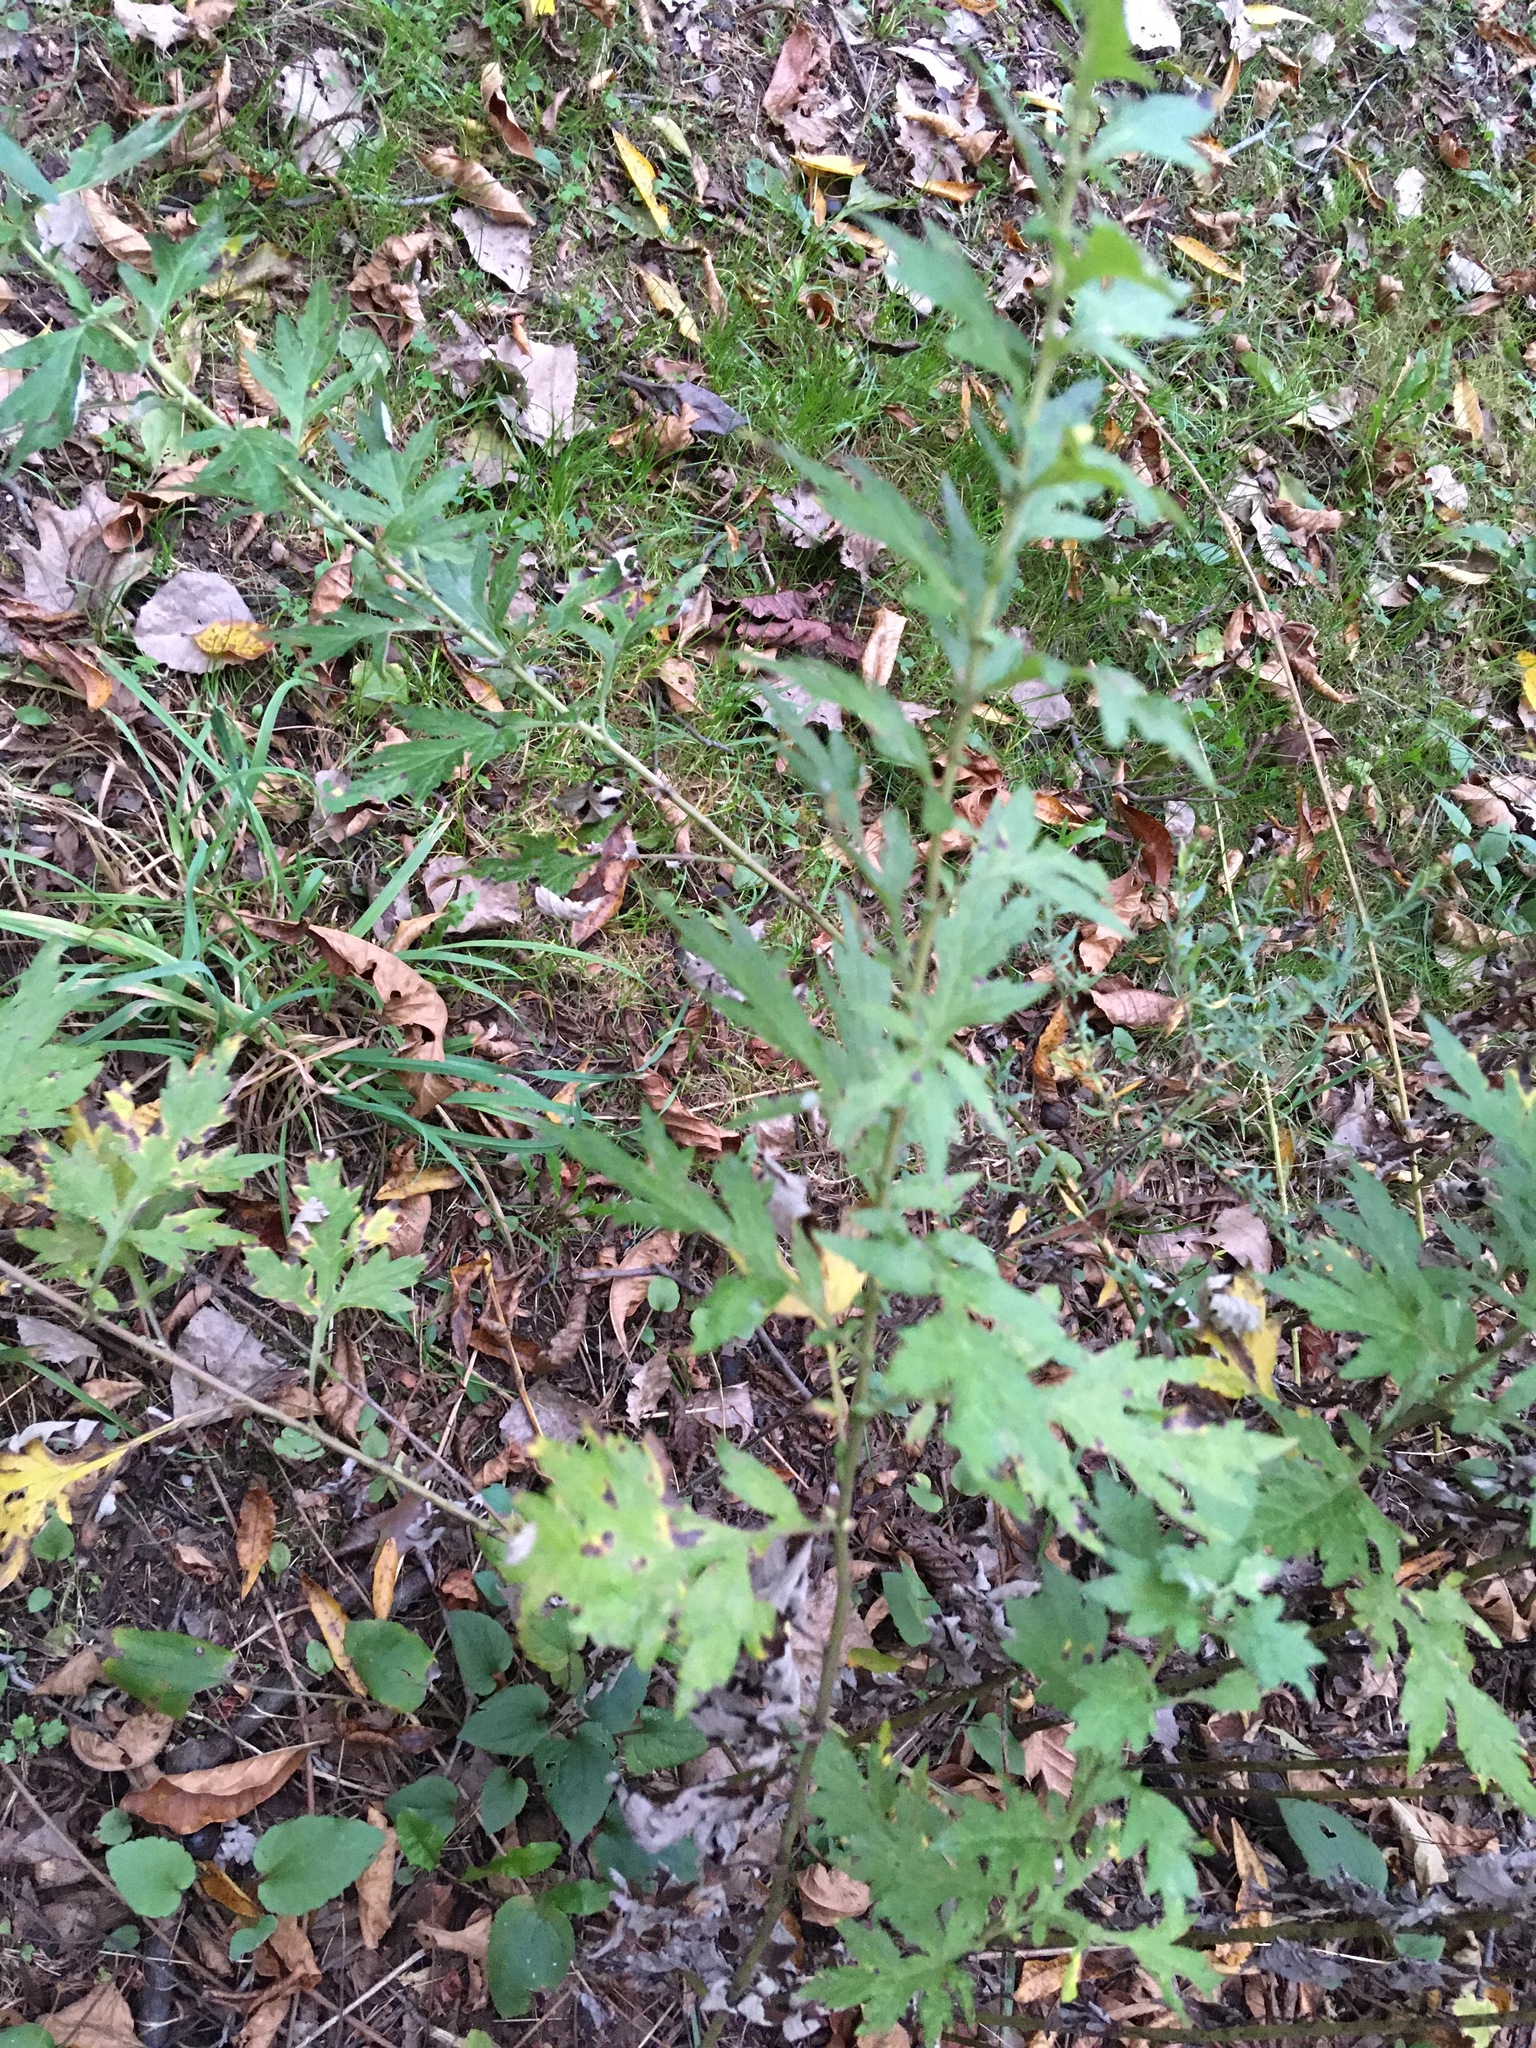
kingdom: Plantae
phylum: Tracheophyta
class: Magnoliopsida
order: Asterales
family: Asteraceae
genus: Artemisia
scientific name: Artemisia vulgaris
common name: Mugwort
